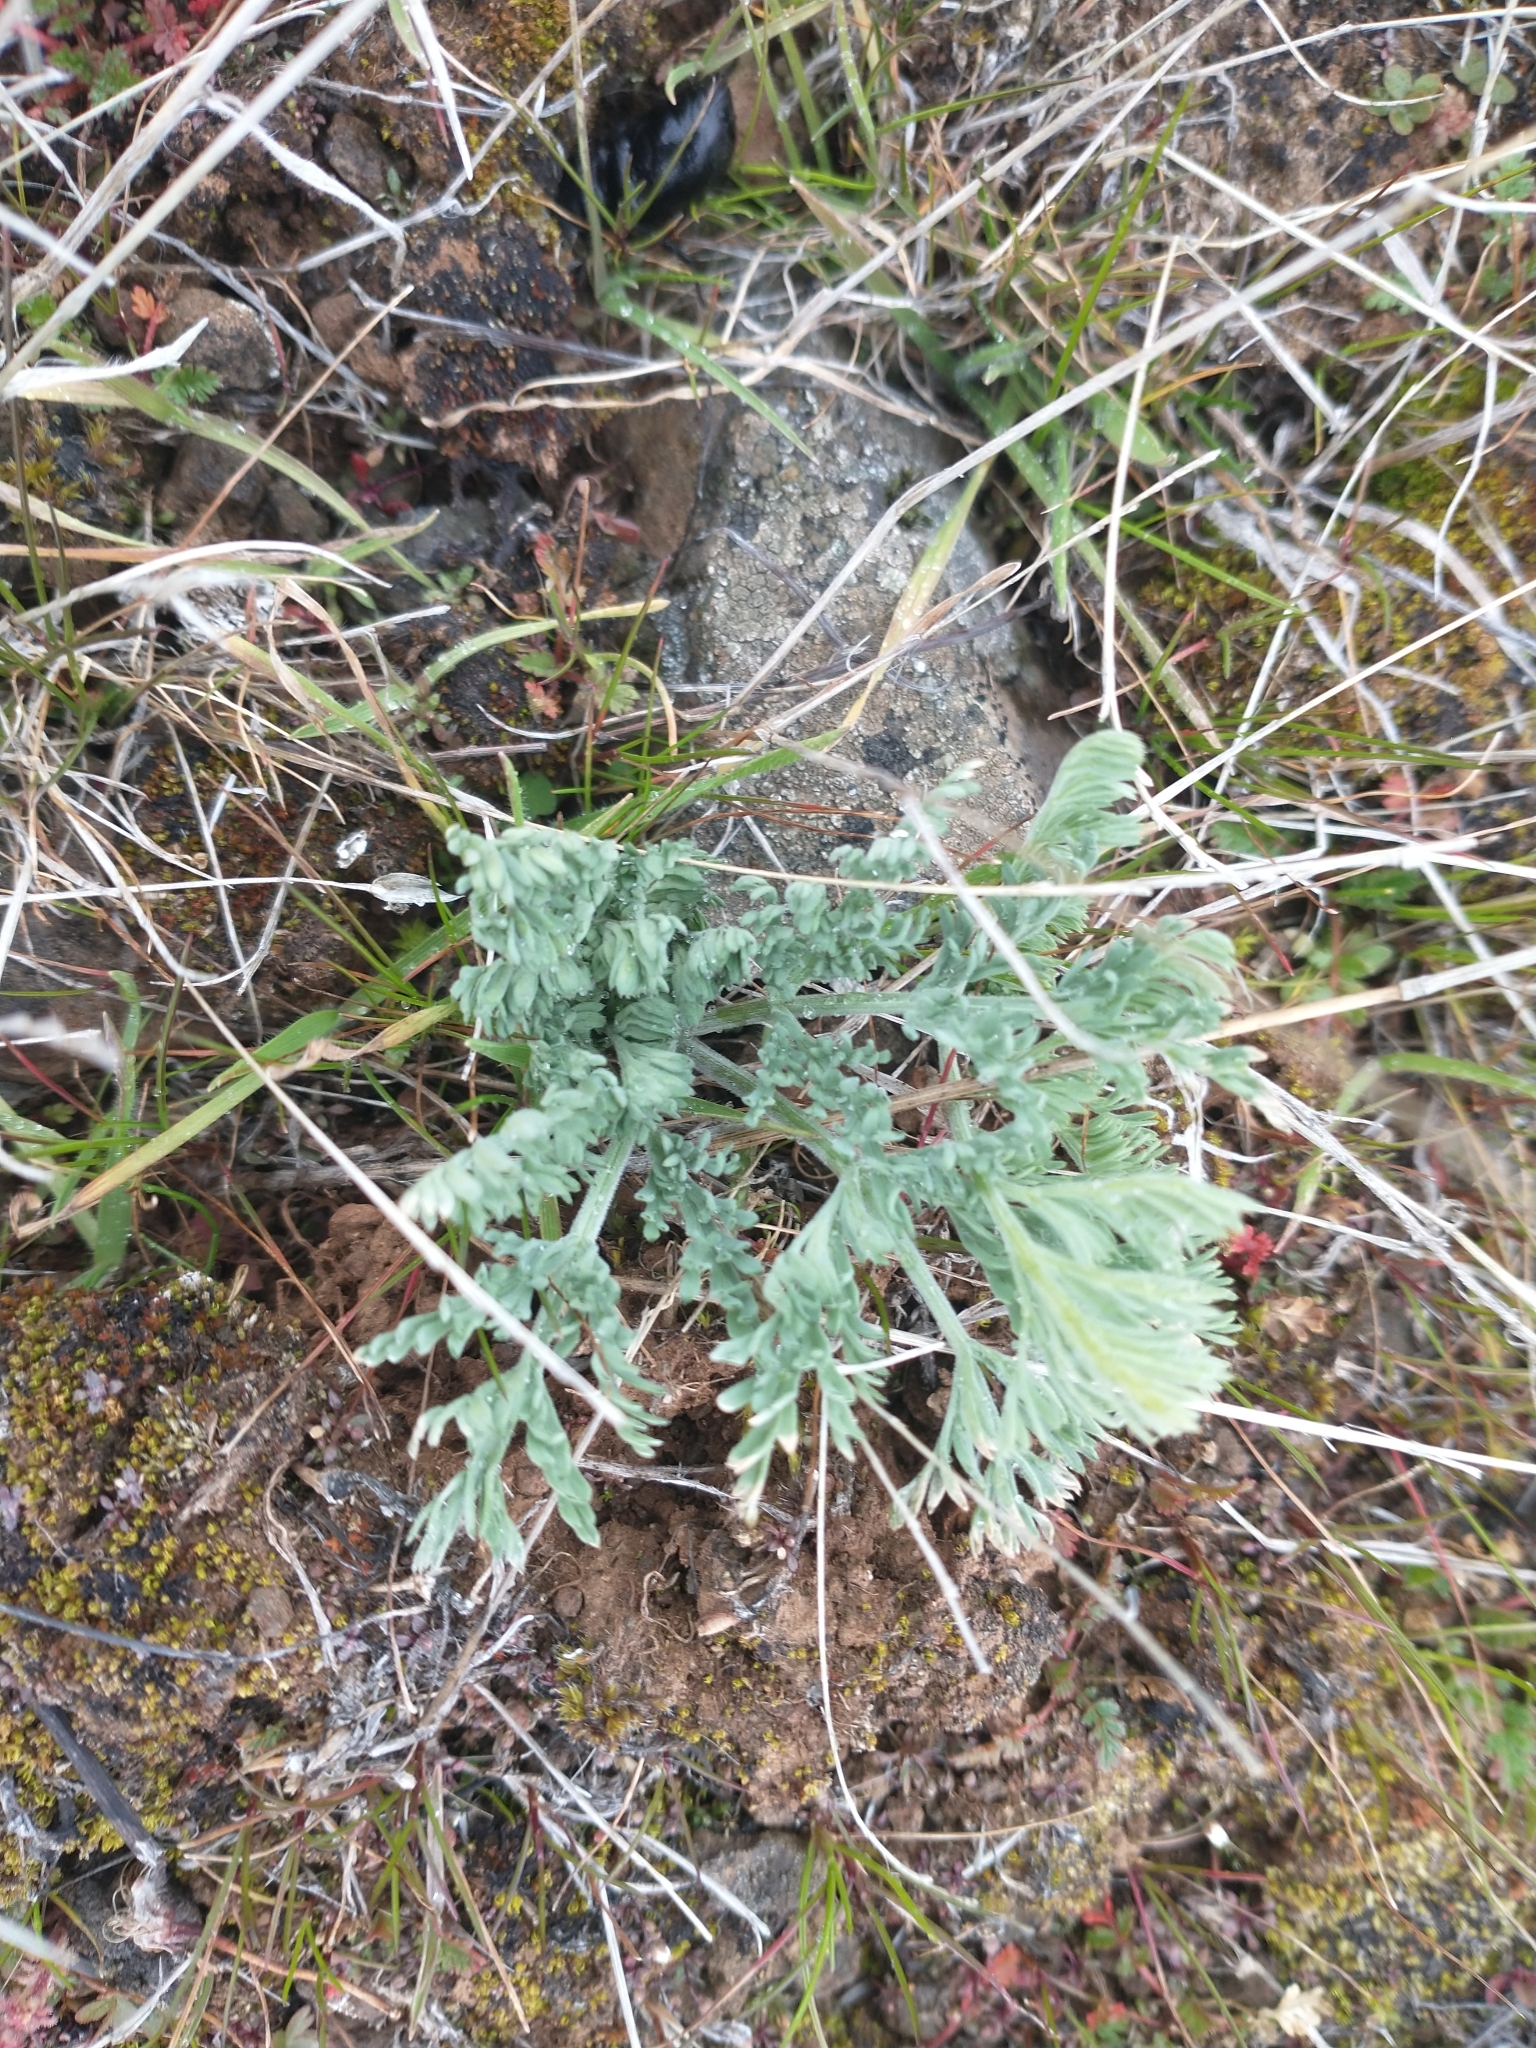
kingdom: Plantae
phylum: Tracheophyta
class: Magnoliopsida
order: Apiales
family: Apiaceae
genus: Lomatium
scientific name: Lomatium macrocarpum
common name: Big-seed biscuitroot
